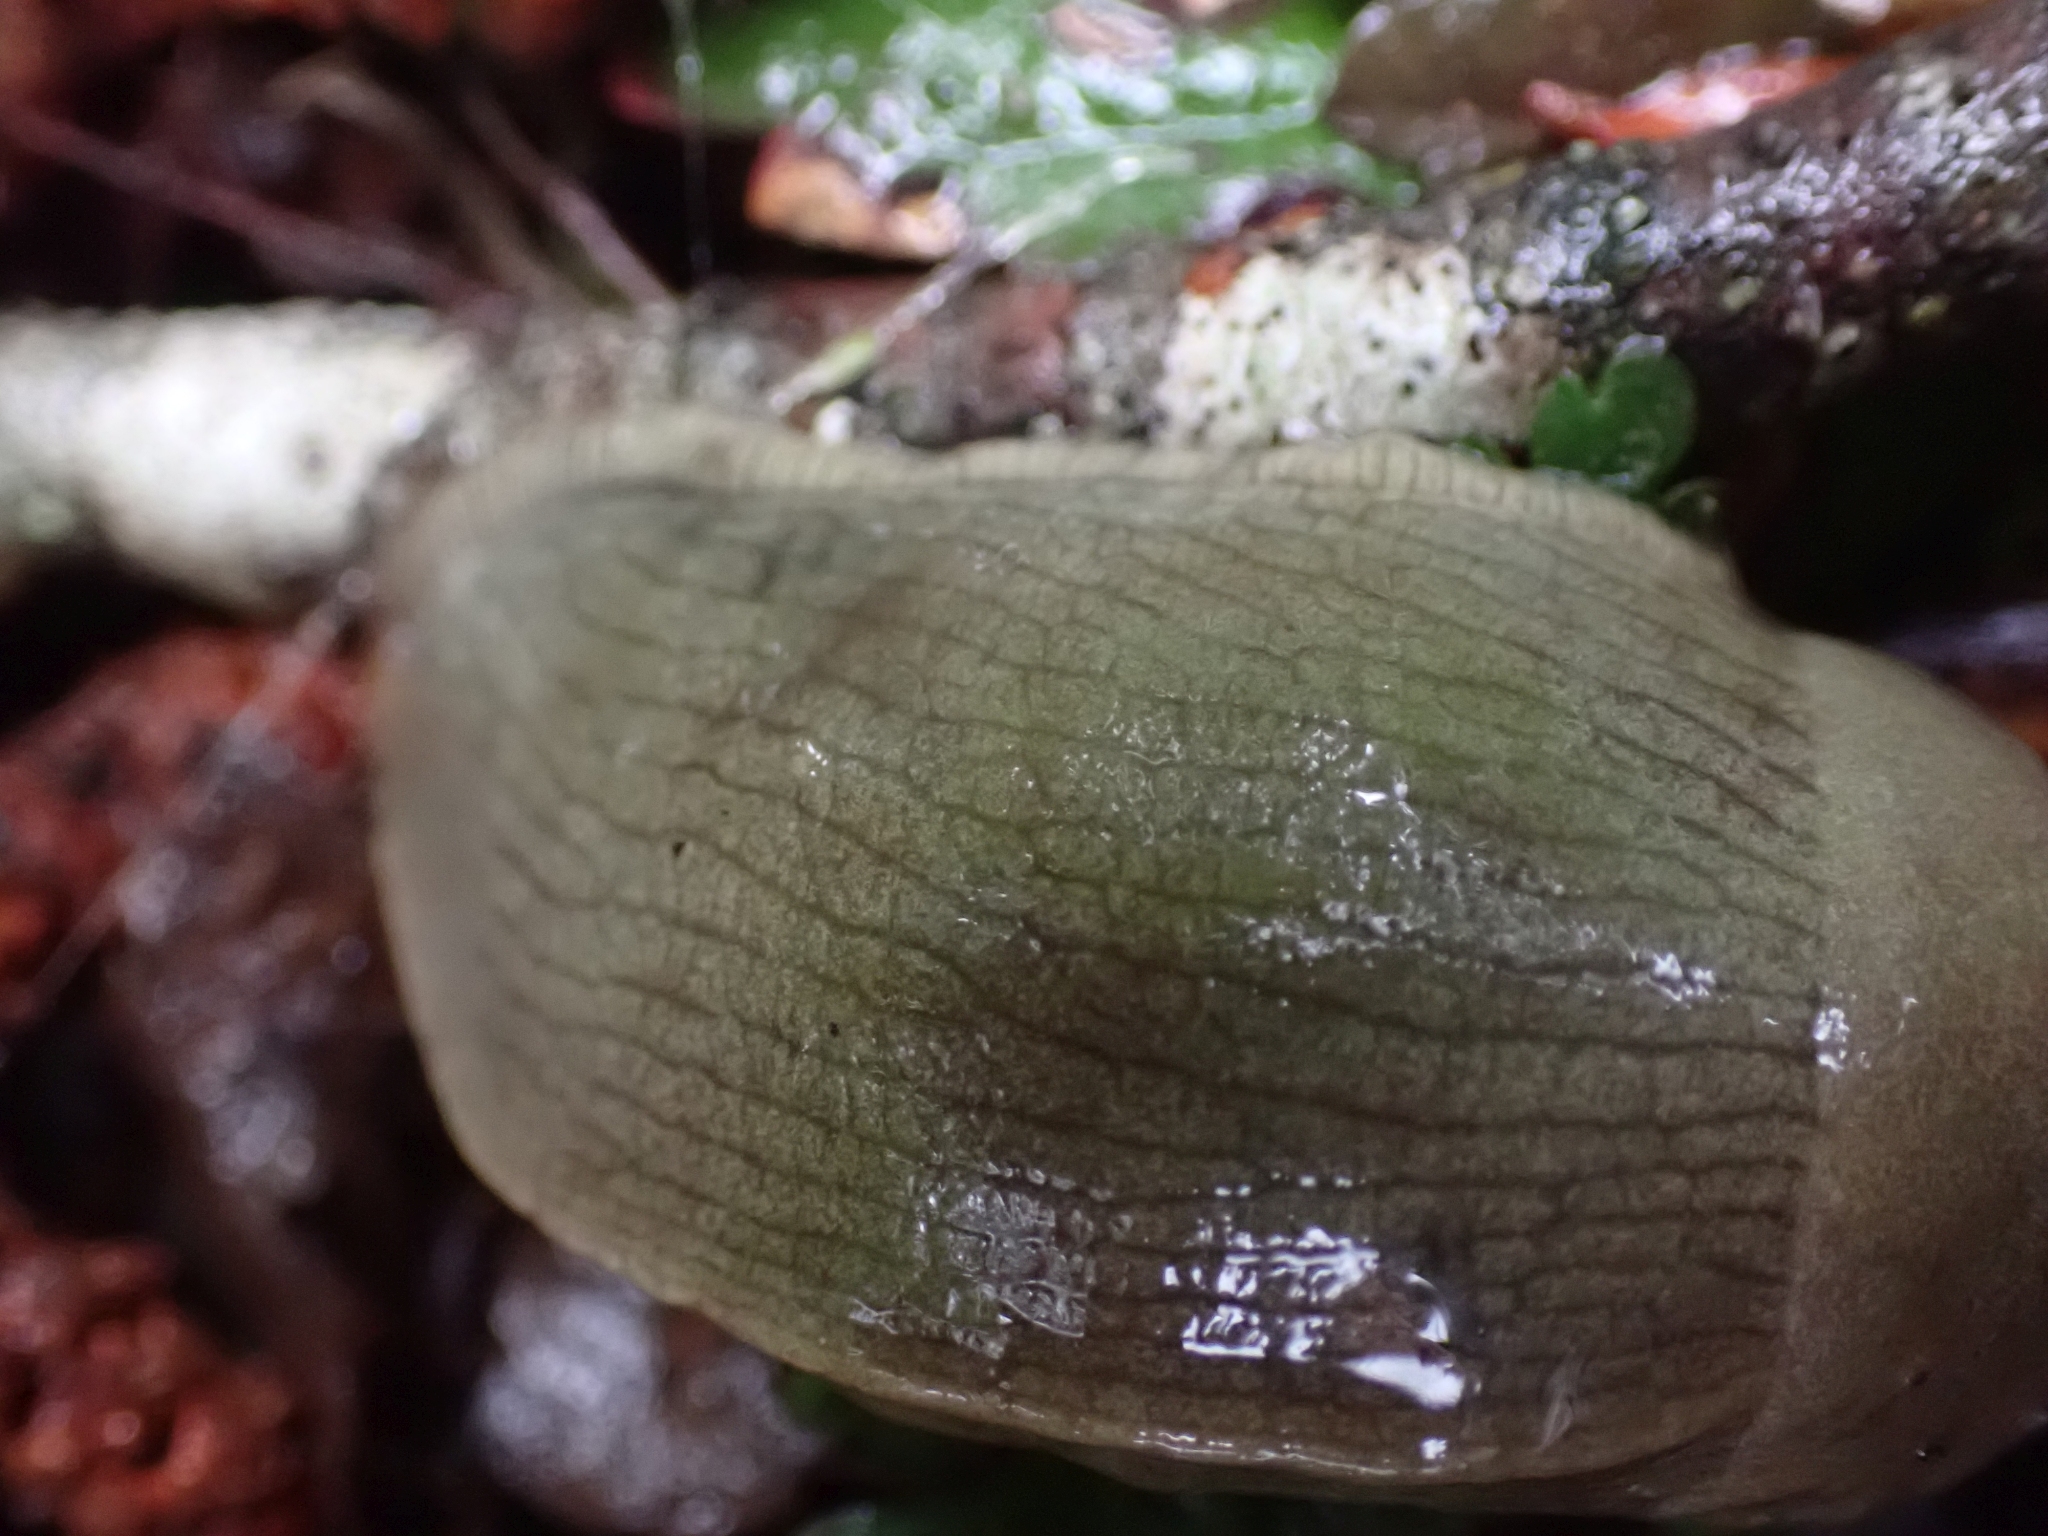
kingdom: Animalia
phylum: Mollusca
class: Gastropoda
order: Stylommatophora
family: Ariolimacidae
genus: Ariolimax
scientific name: Ariolimax columbianus
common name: Pacific banana slug
